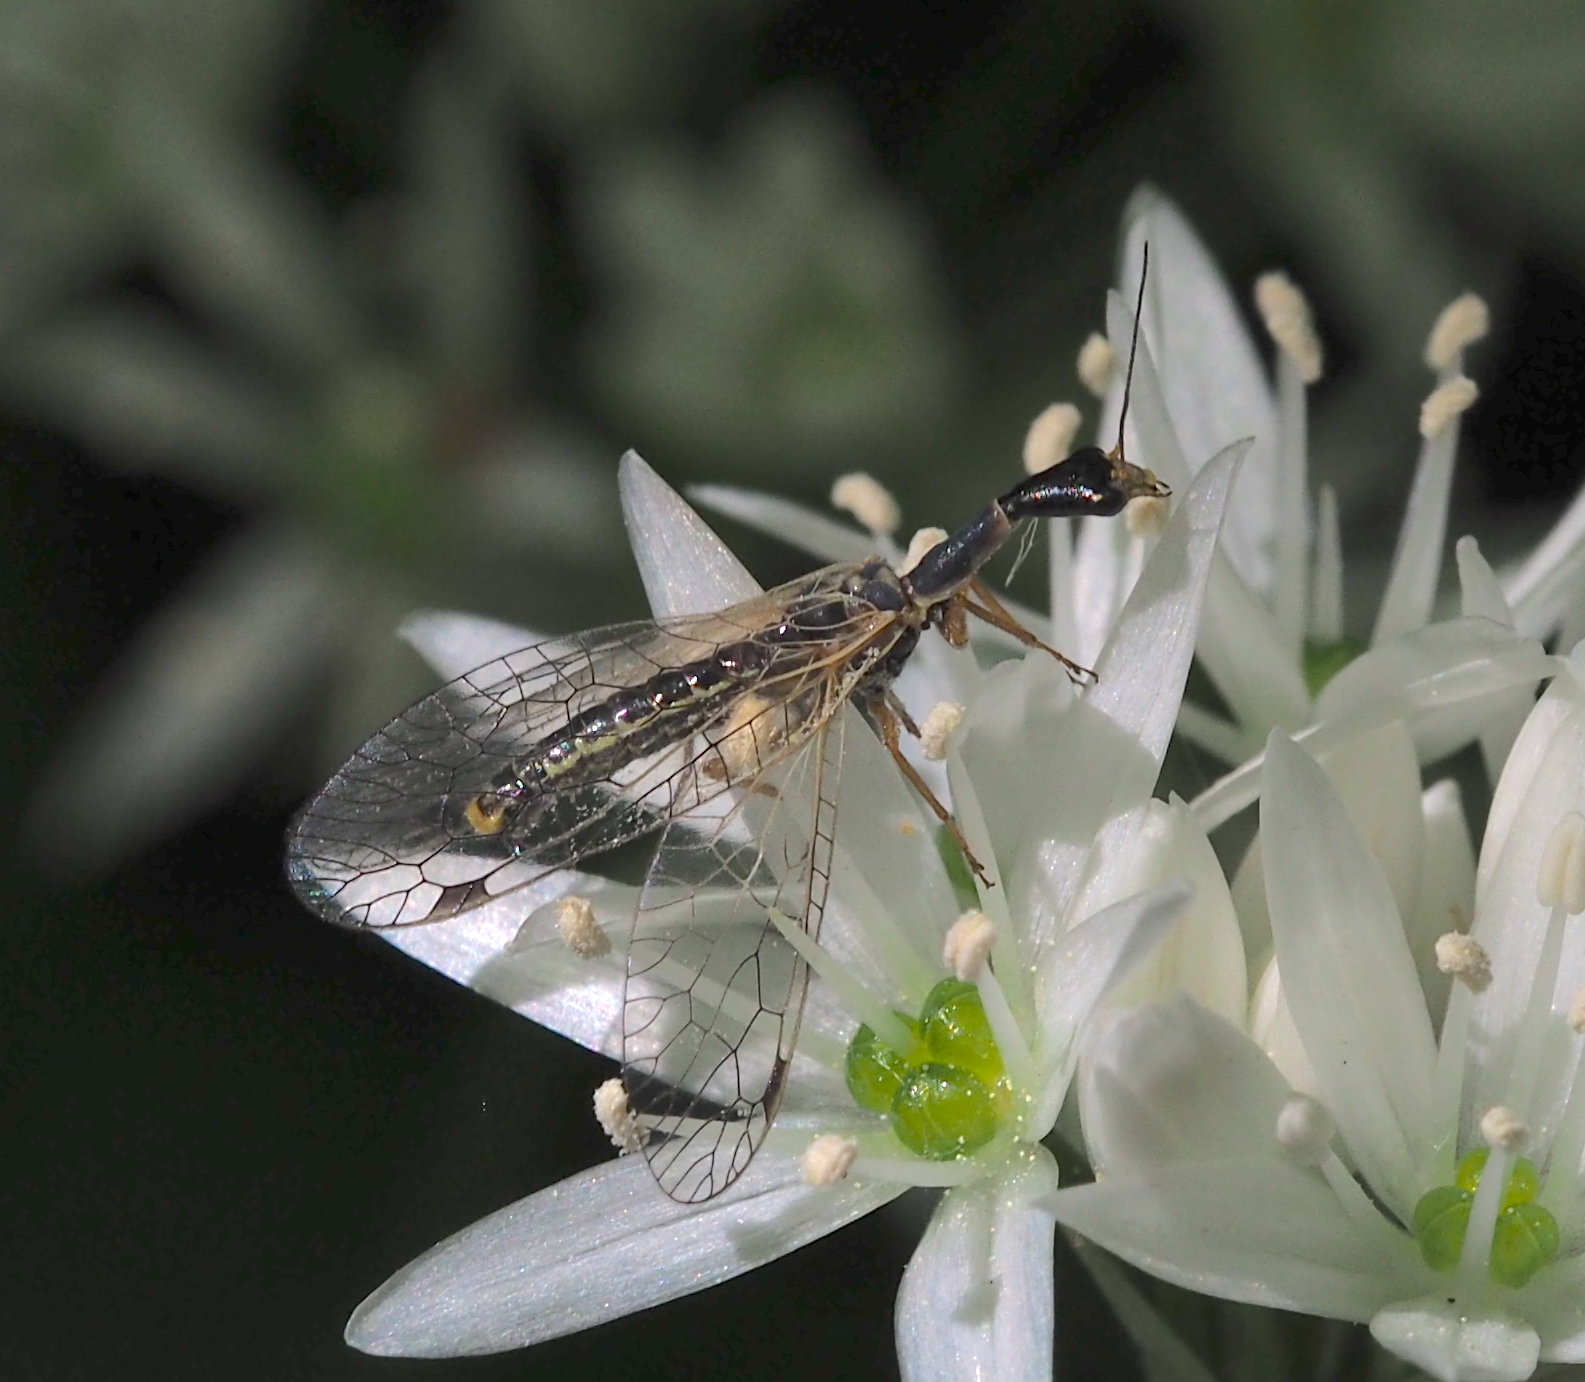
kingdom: Animalia
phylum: Arthropoda
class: Insecta
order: Raphidioptera
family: Raphidiidae
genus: Ornatoraphidia
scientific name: Ornatoraphidia flavilabris
